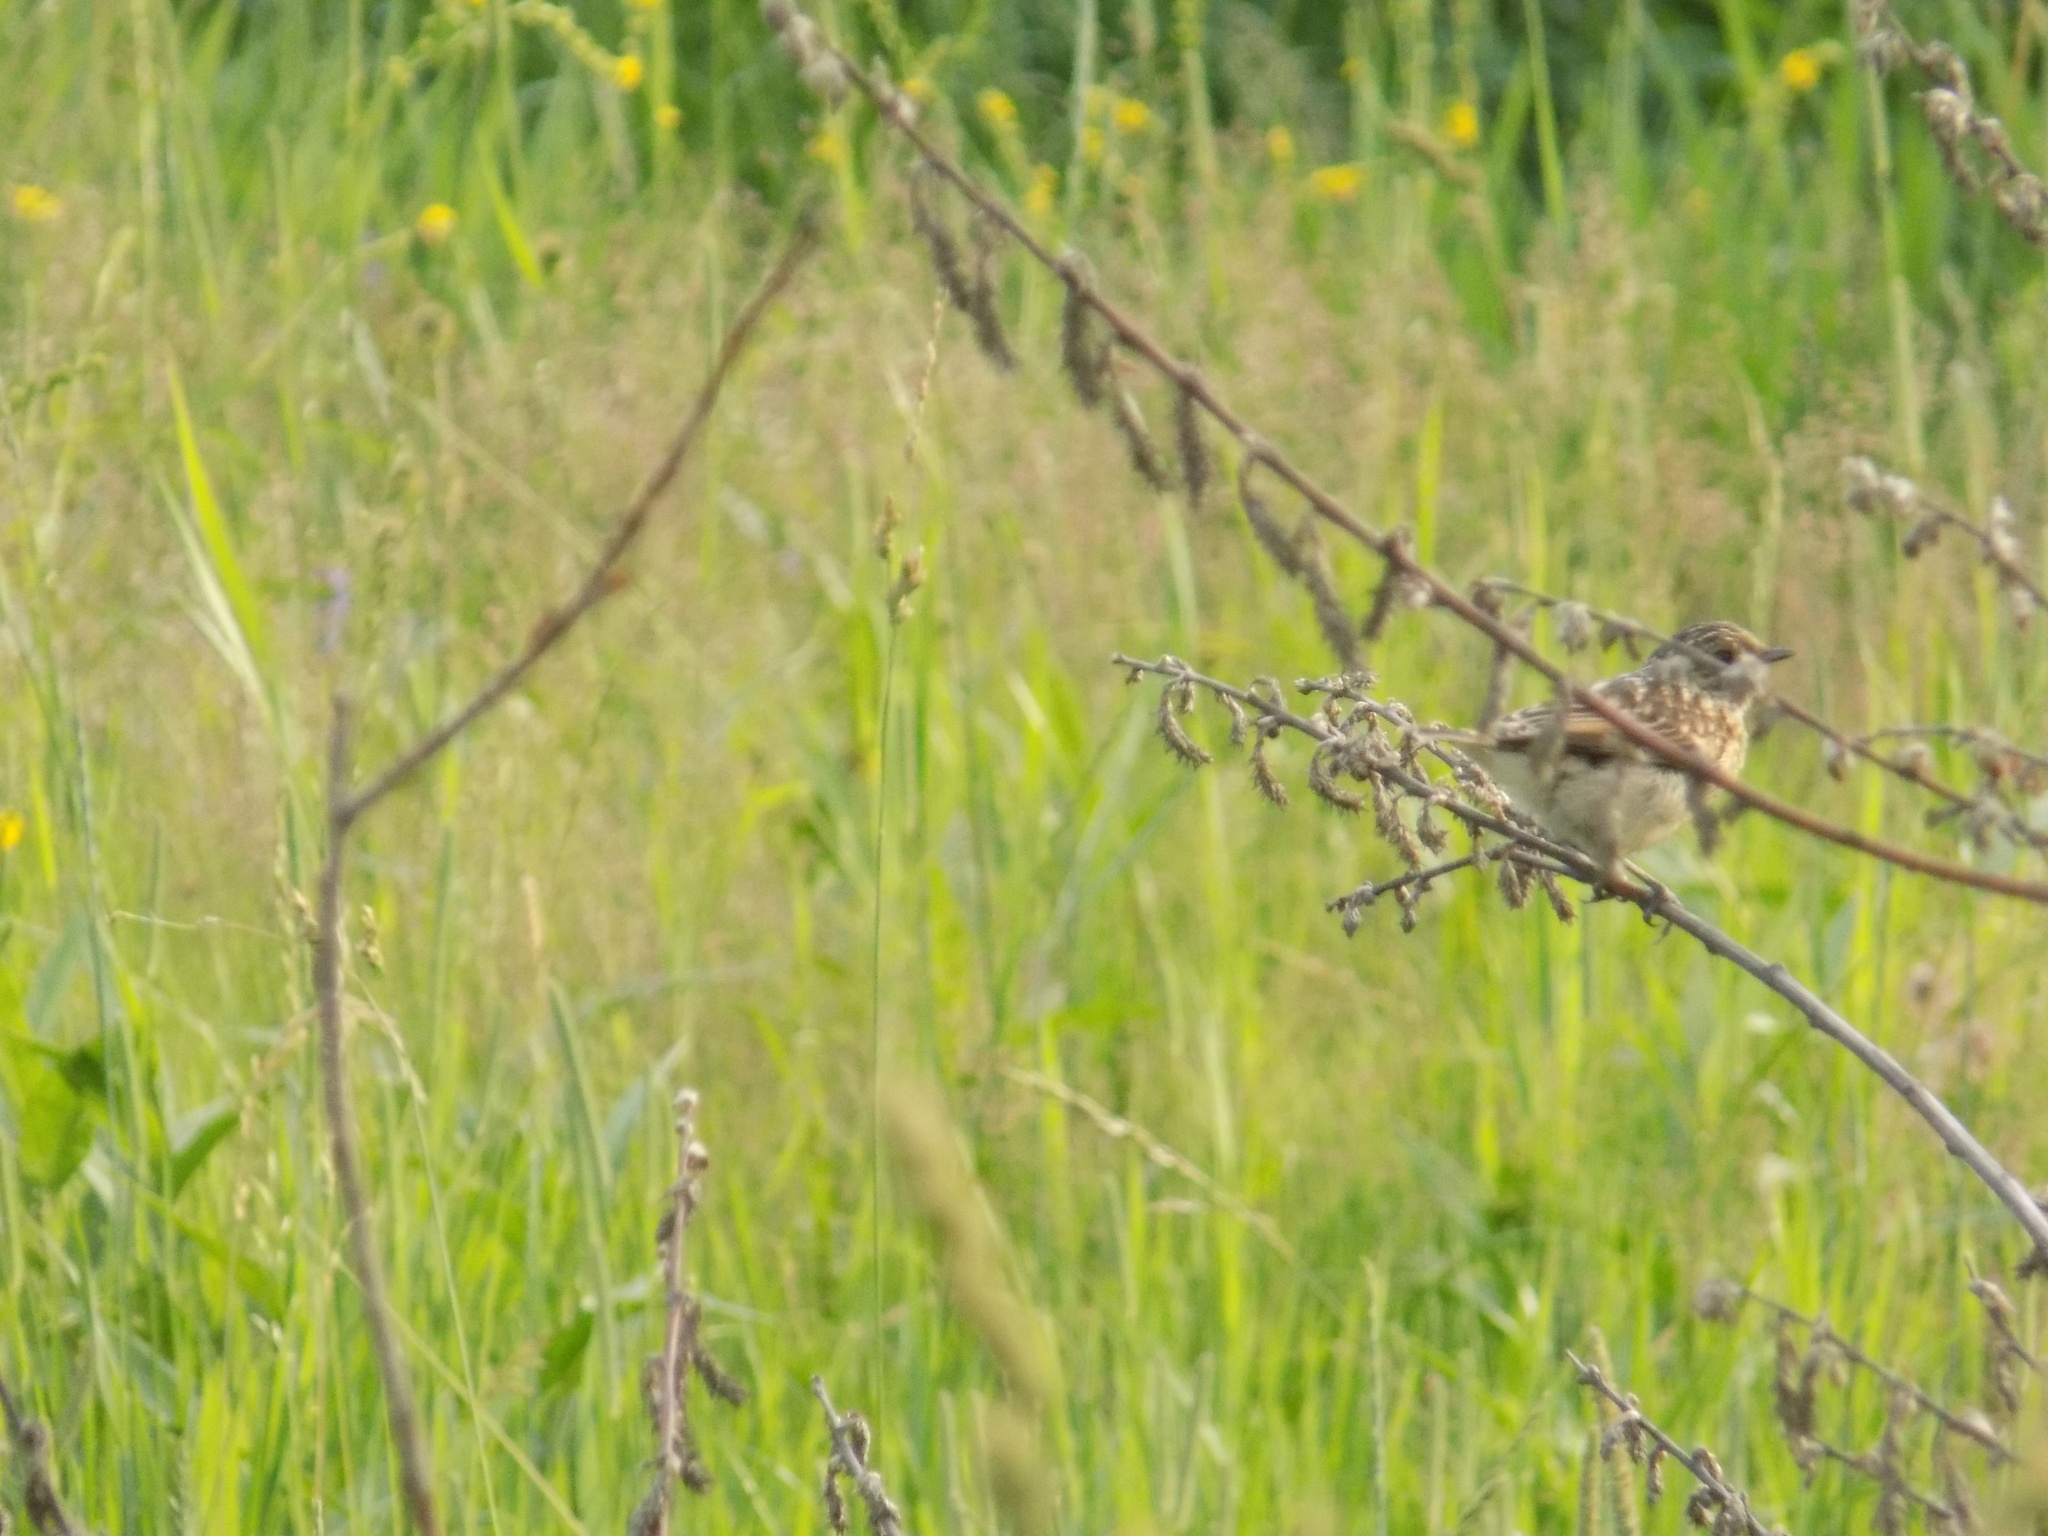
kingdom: Animalia
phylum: Chordata
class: Aves
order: Passeriformes
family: Muscicapidae
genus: Saxicola
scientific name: Saxicola maurus
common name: Siberian stonechat
